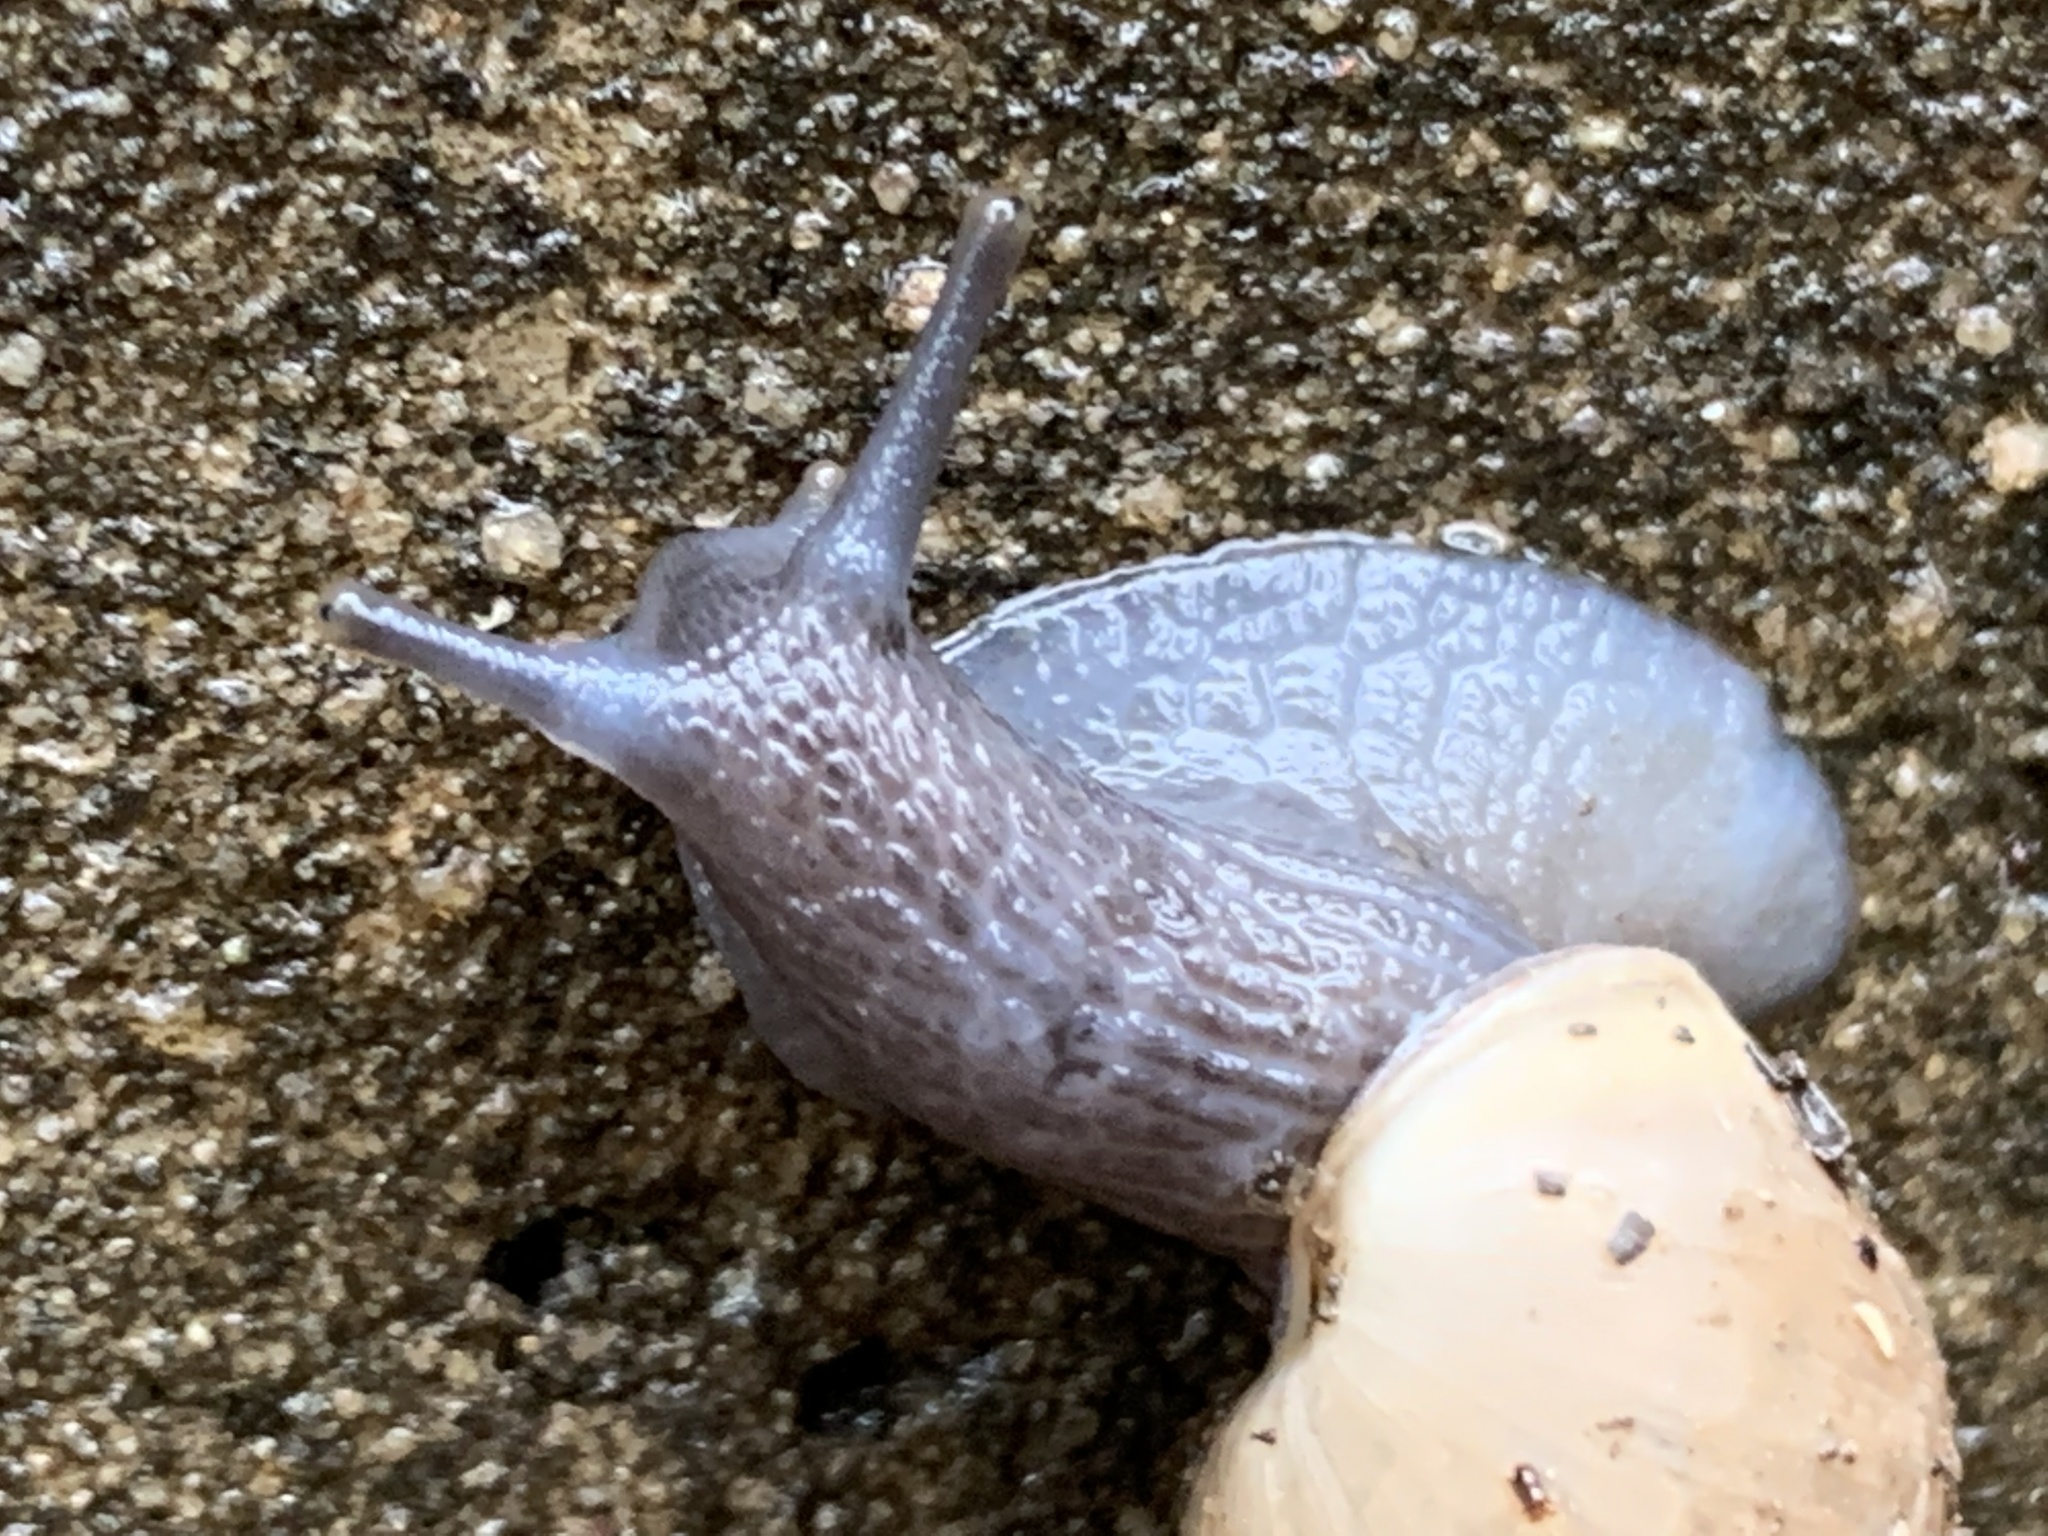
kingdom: Animalia
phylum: Mollusca
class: Gastropoda
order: Stylommatophora
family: Achatinidae
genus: Rumina
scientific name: Rumina decollata
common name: Decollate snail
